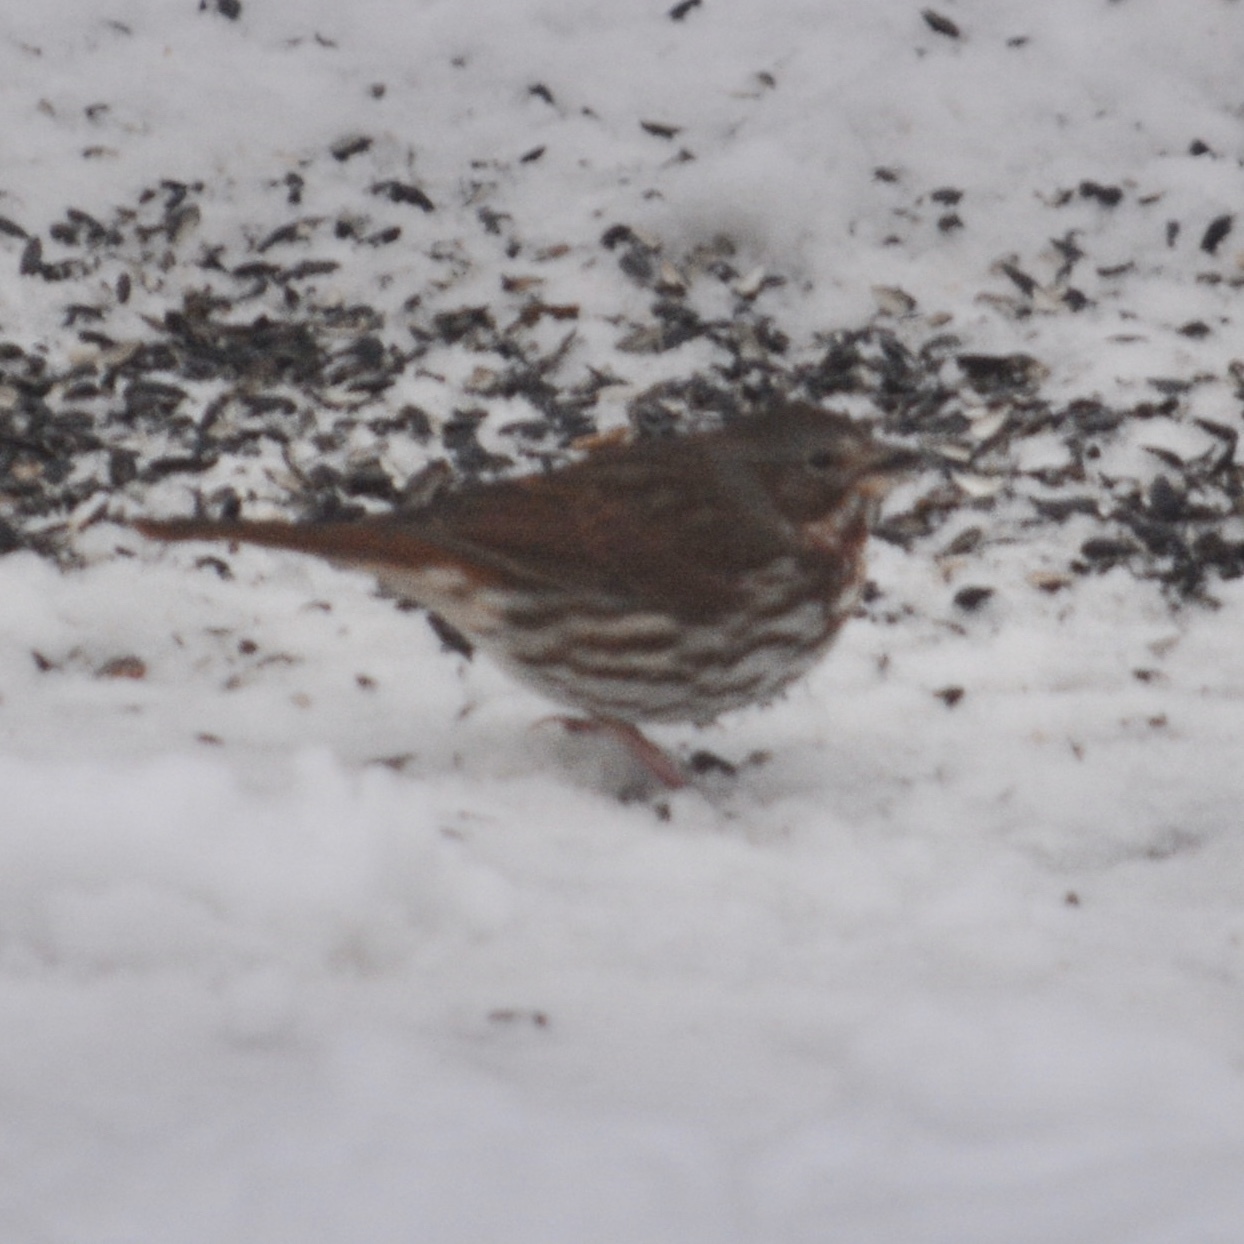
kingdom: Animalia
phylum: Chordata
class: Aves
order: Passeriformes
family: Passerellidae
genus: Passerella
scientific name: Passerella iliaca
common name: Fox sparrow
